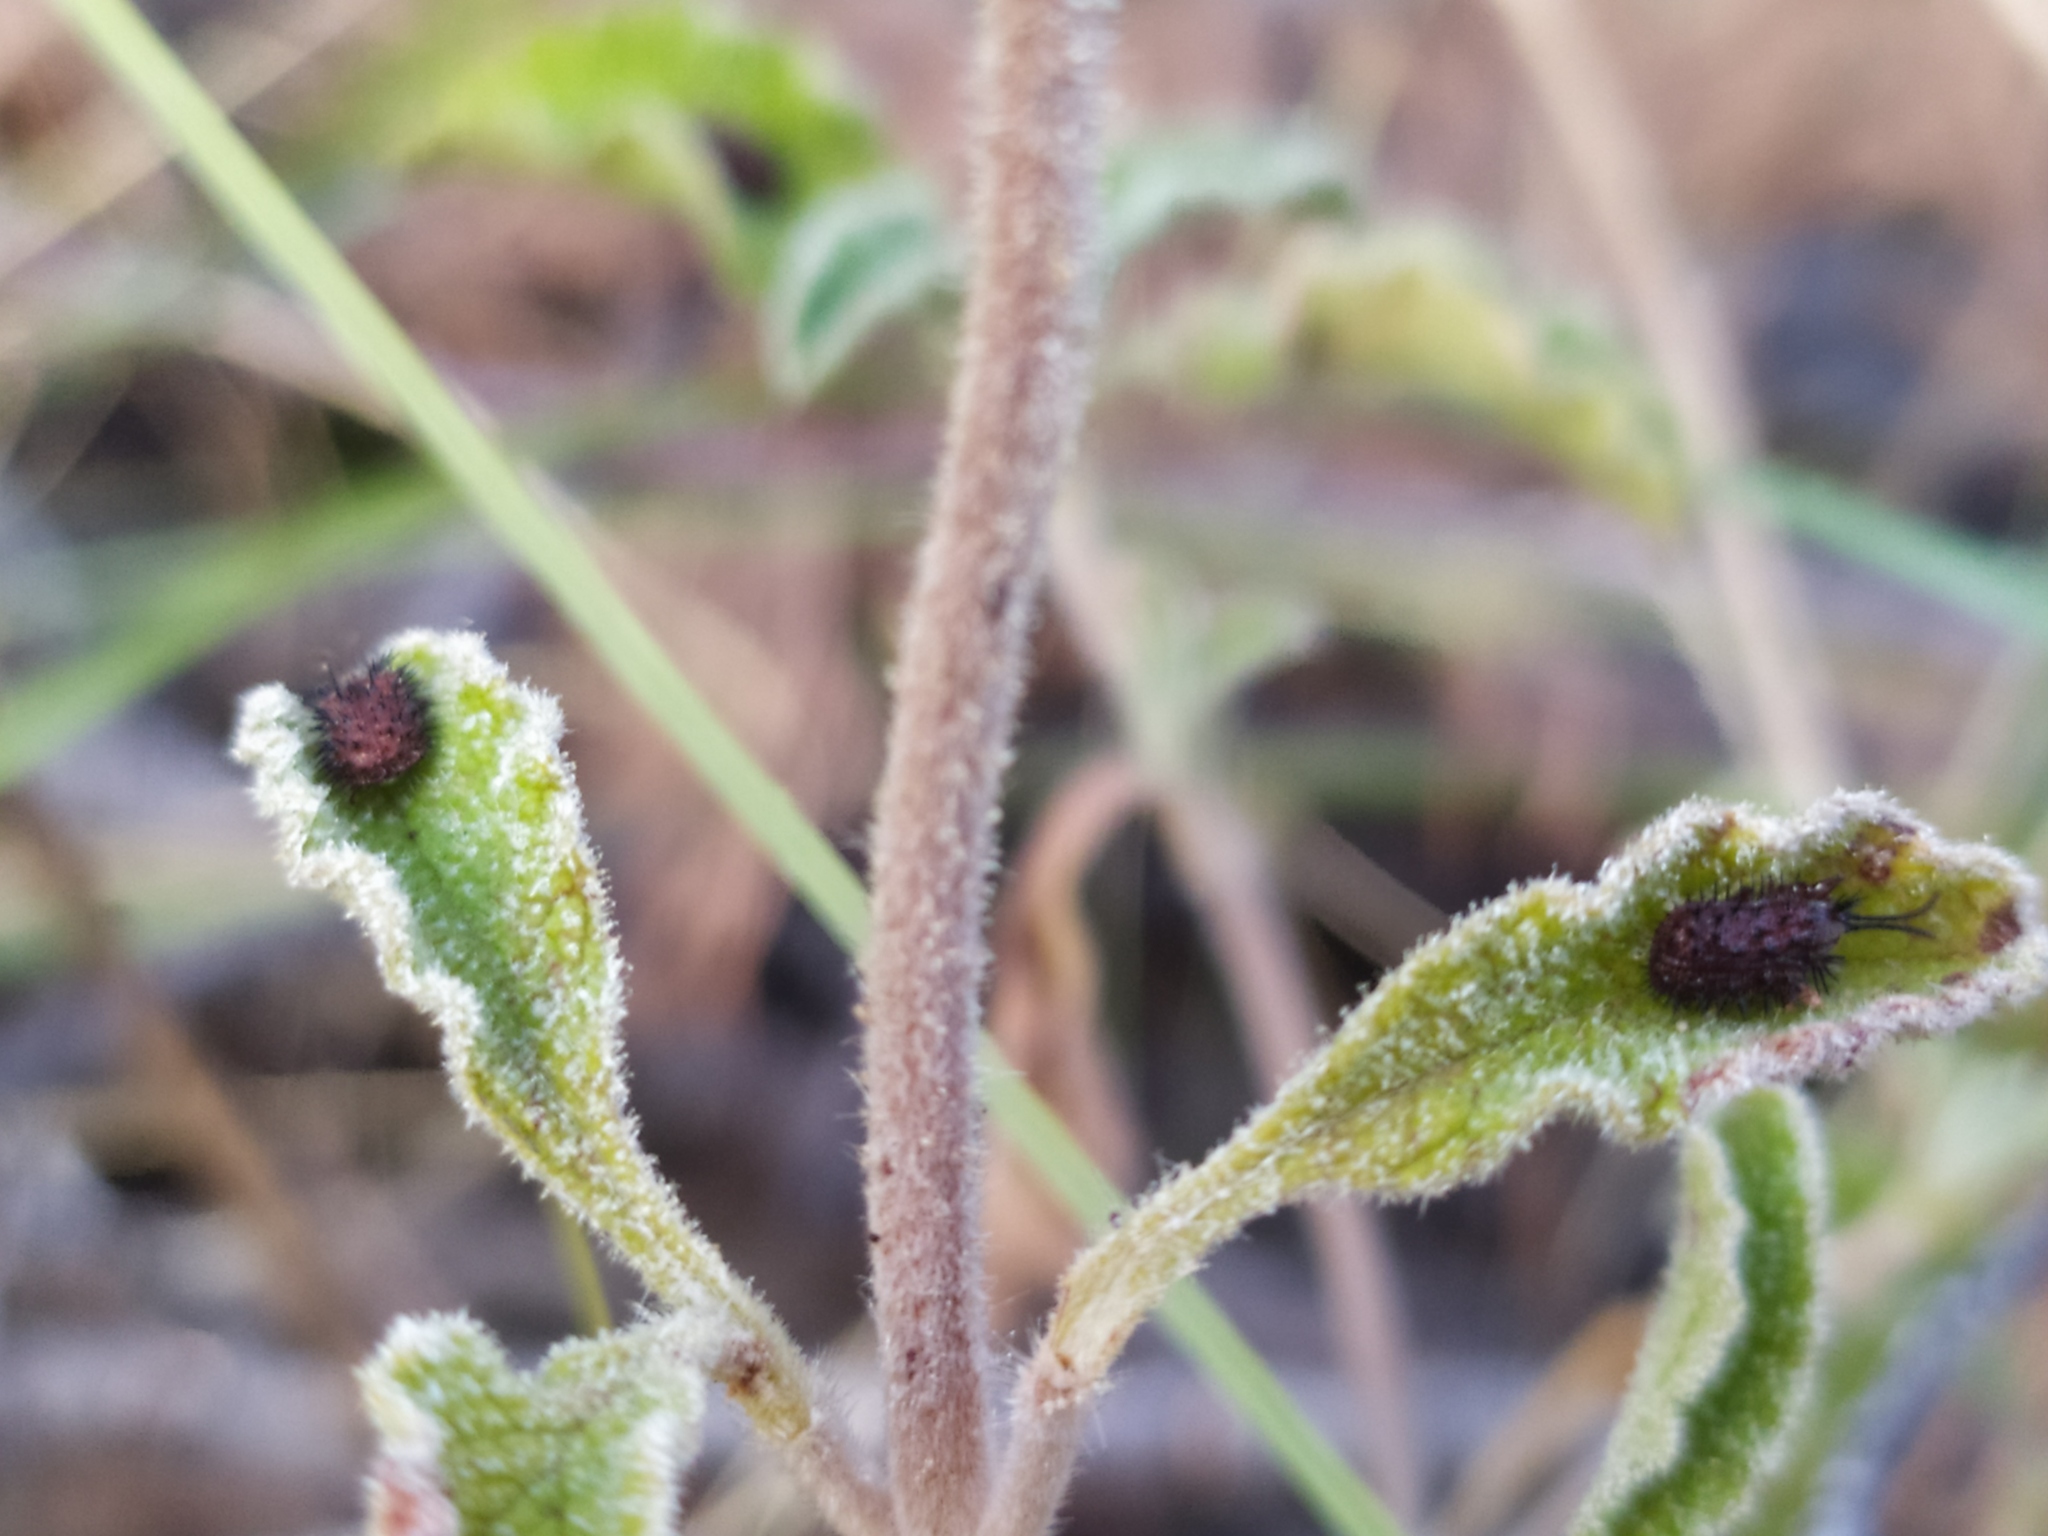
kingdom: Animalia
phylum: Arthropoda
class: Insecta
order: Coleoptera
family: Chrysomelidae
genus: Dicladispa
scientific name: Dicladispa testacea
